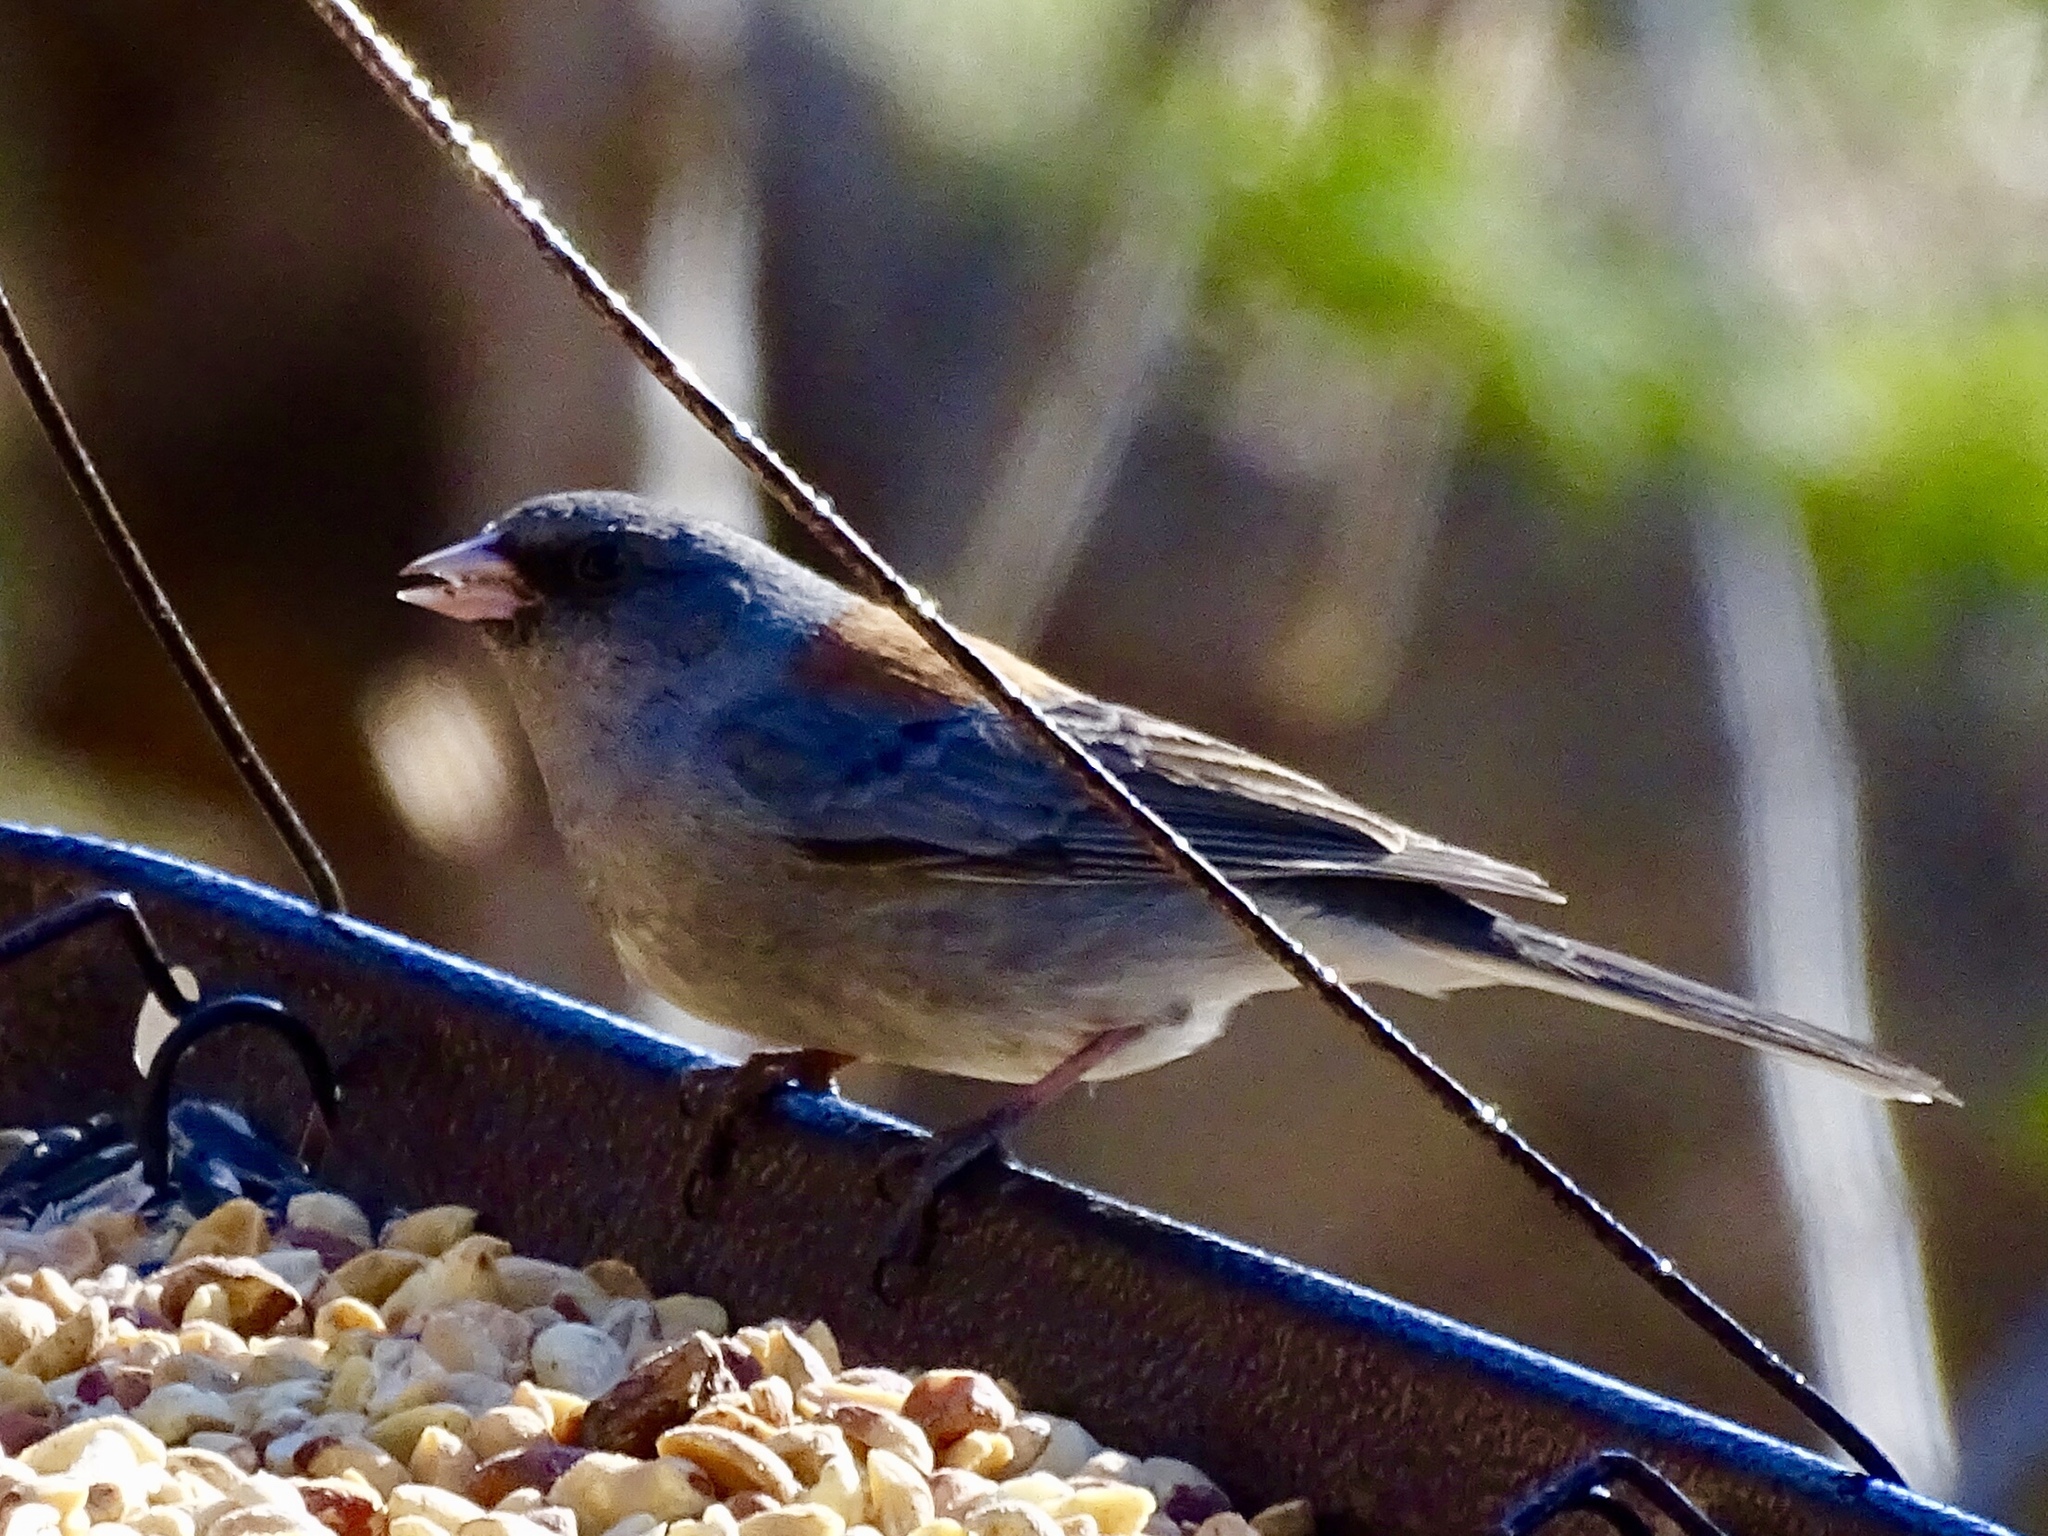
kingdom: Animalia
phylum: Chordata
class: Aves
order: Passeriformes
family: Passerellidae
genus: Junco
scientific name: Junco hyemalis
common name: Dark-eyed junco
